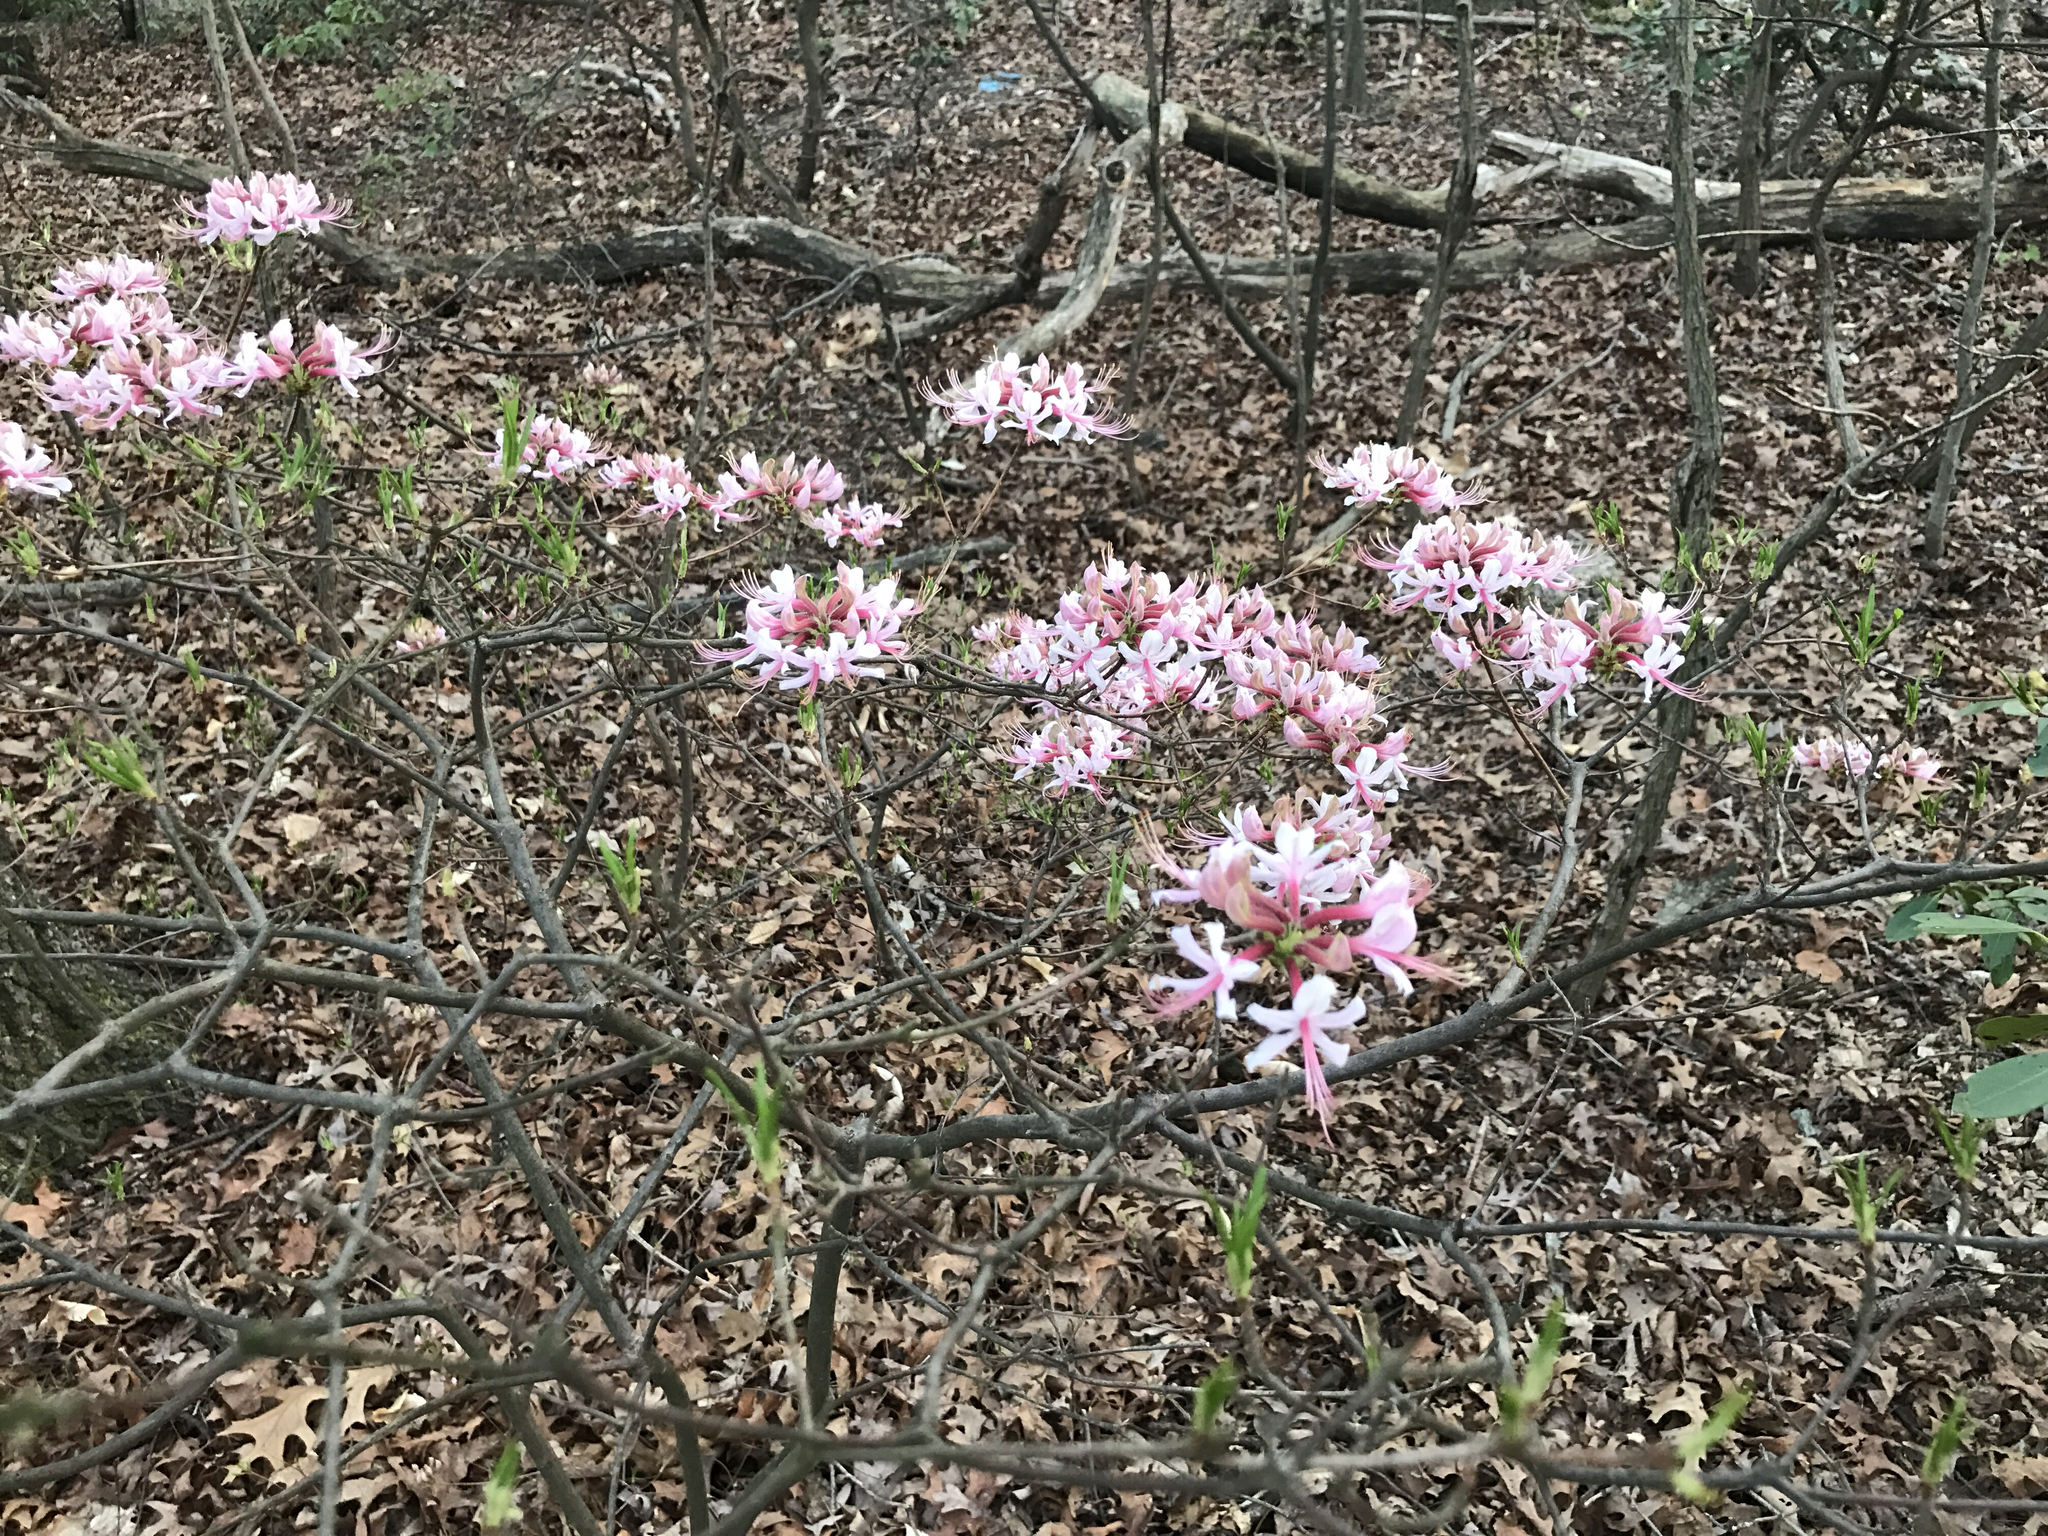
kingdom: Plantae
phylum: Tracheophyta
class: Magnoliopsida
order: Ericales
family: Ericaceae
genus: Rhododendron
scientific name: Rhododendron periclymenoides
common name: Election-pink
